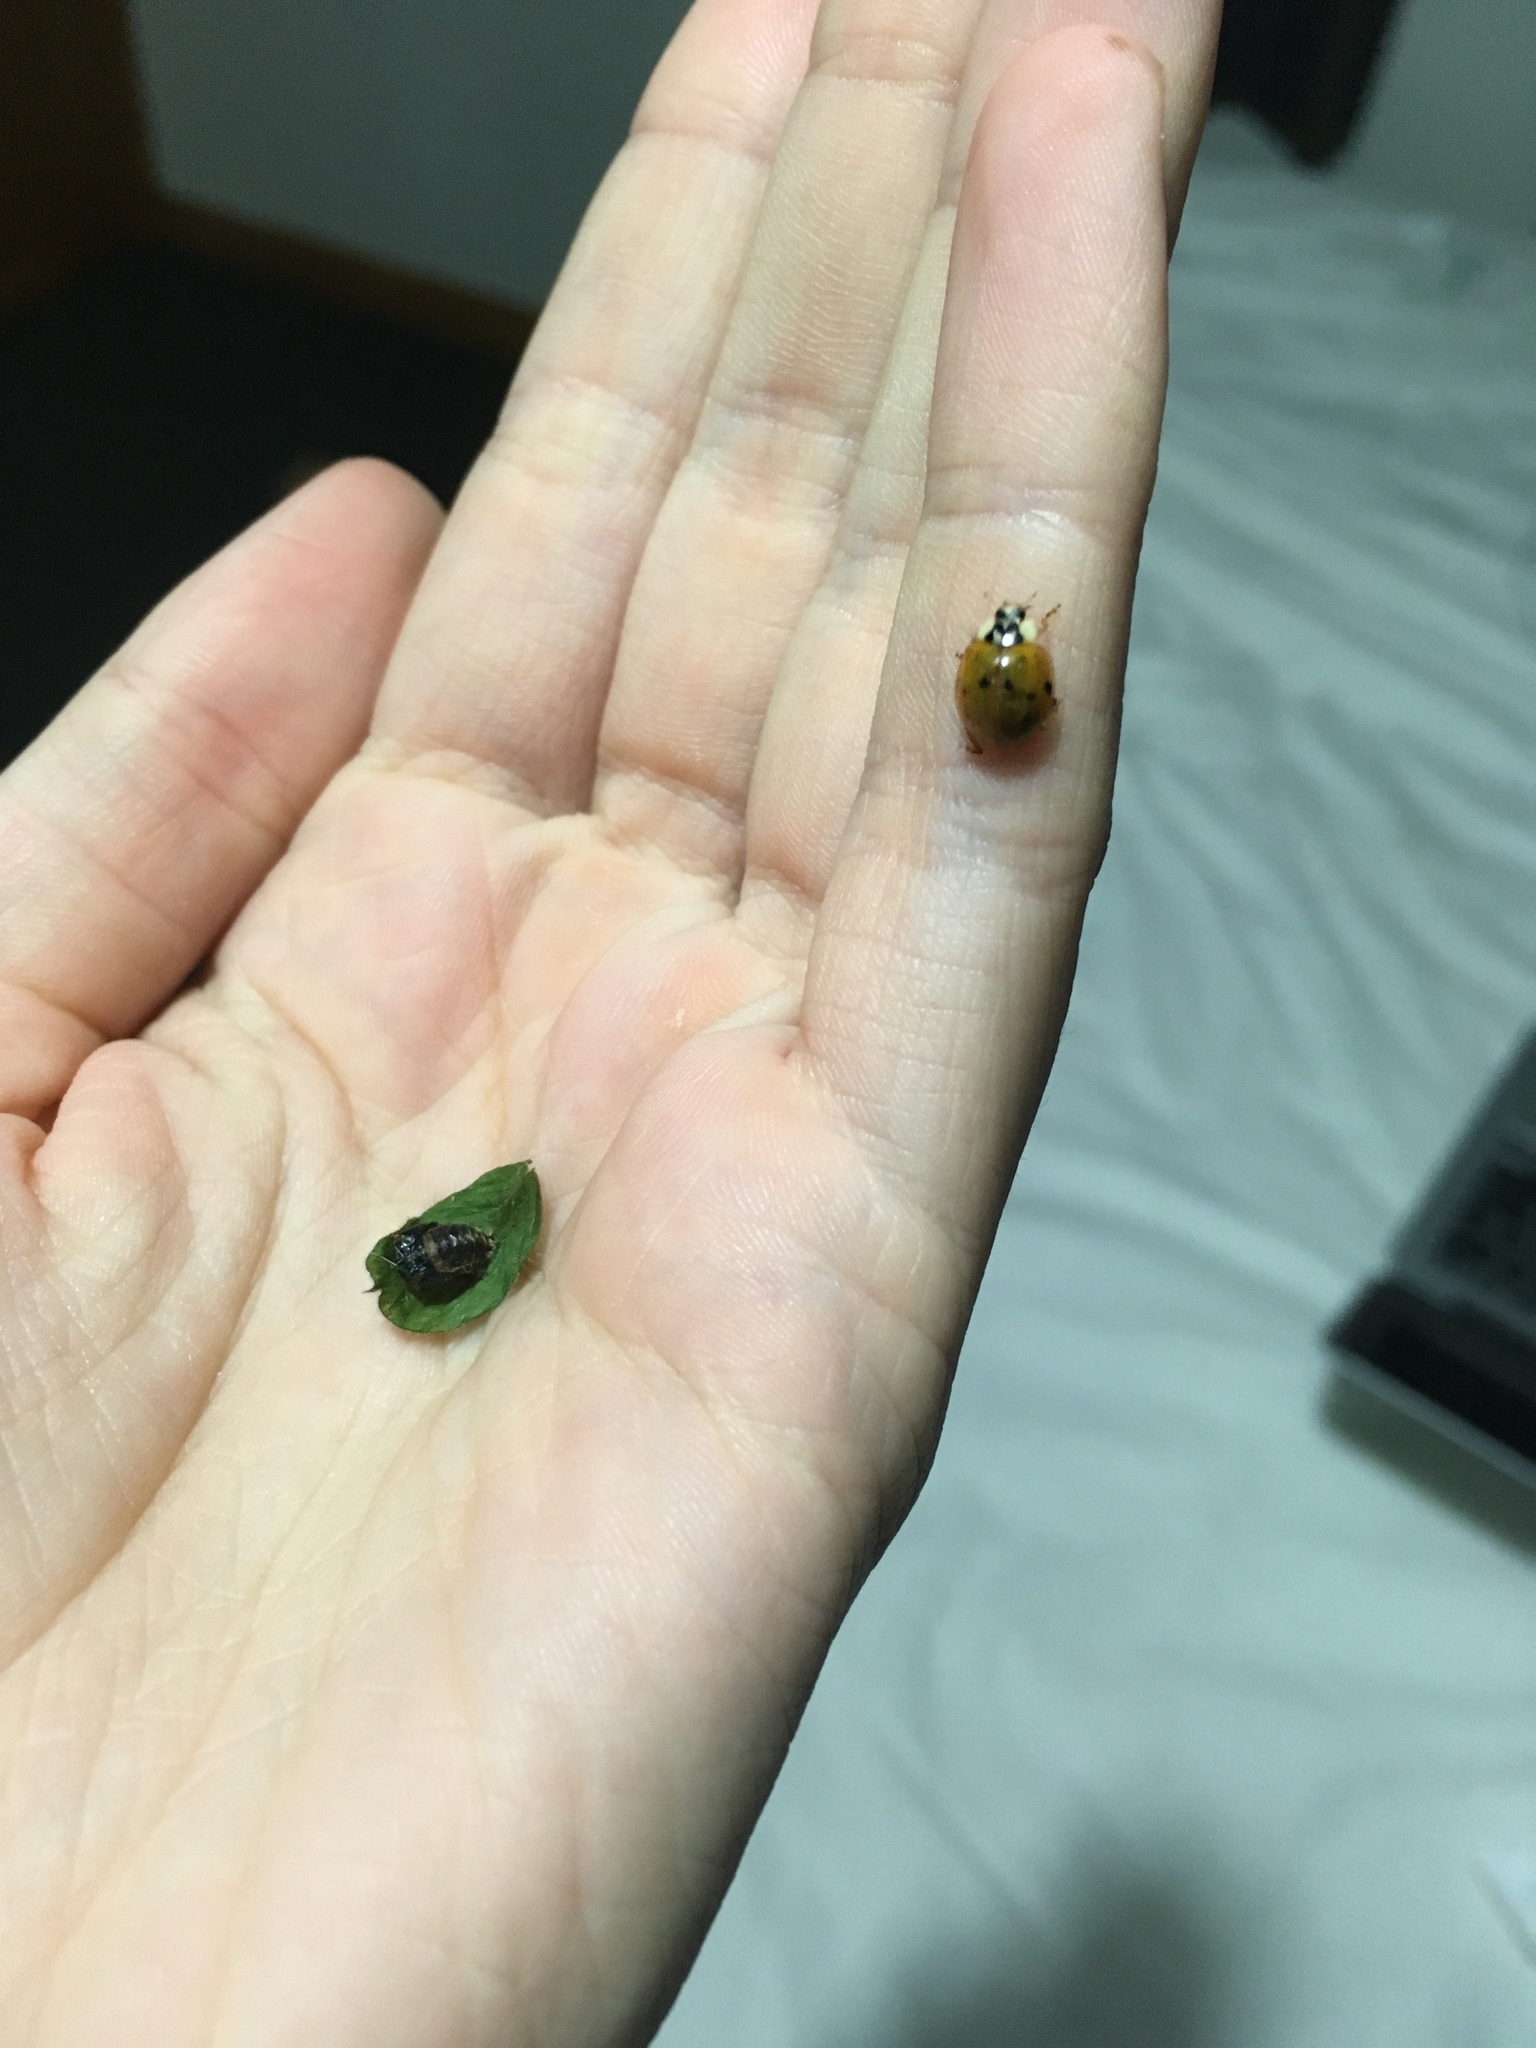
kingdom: Animalia
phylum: Arthropoda
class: Insecta
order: Coleoptera
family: Coccinellidae
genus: Harmonia
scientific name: Harmonia axyridis
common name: Harlequin ladybird
